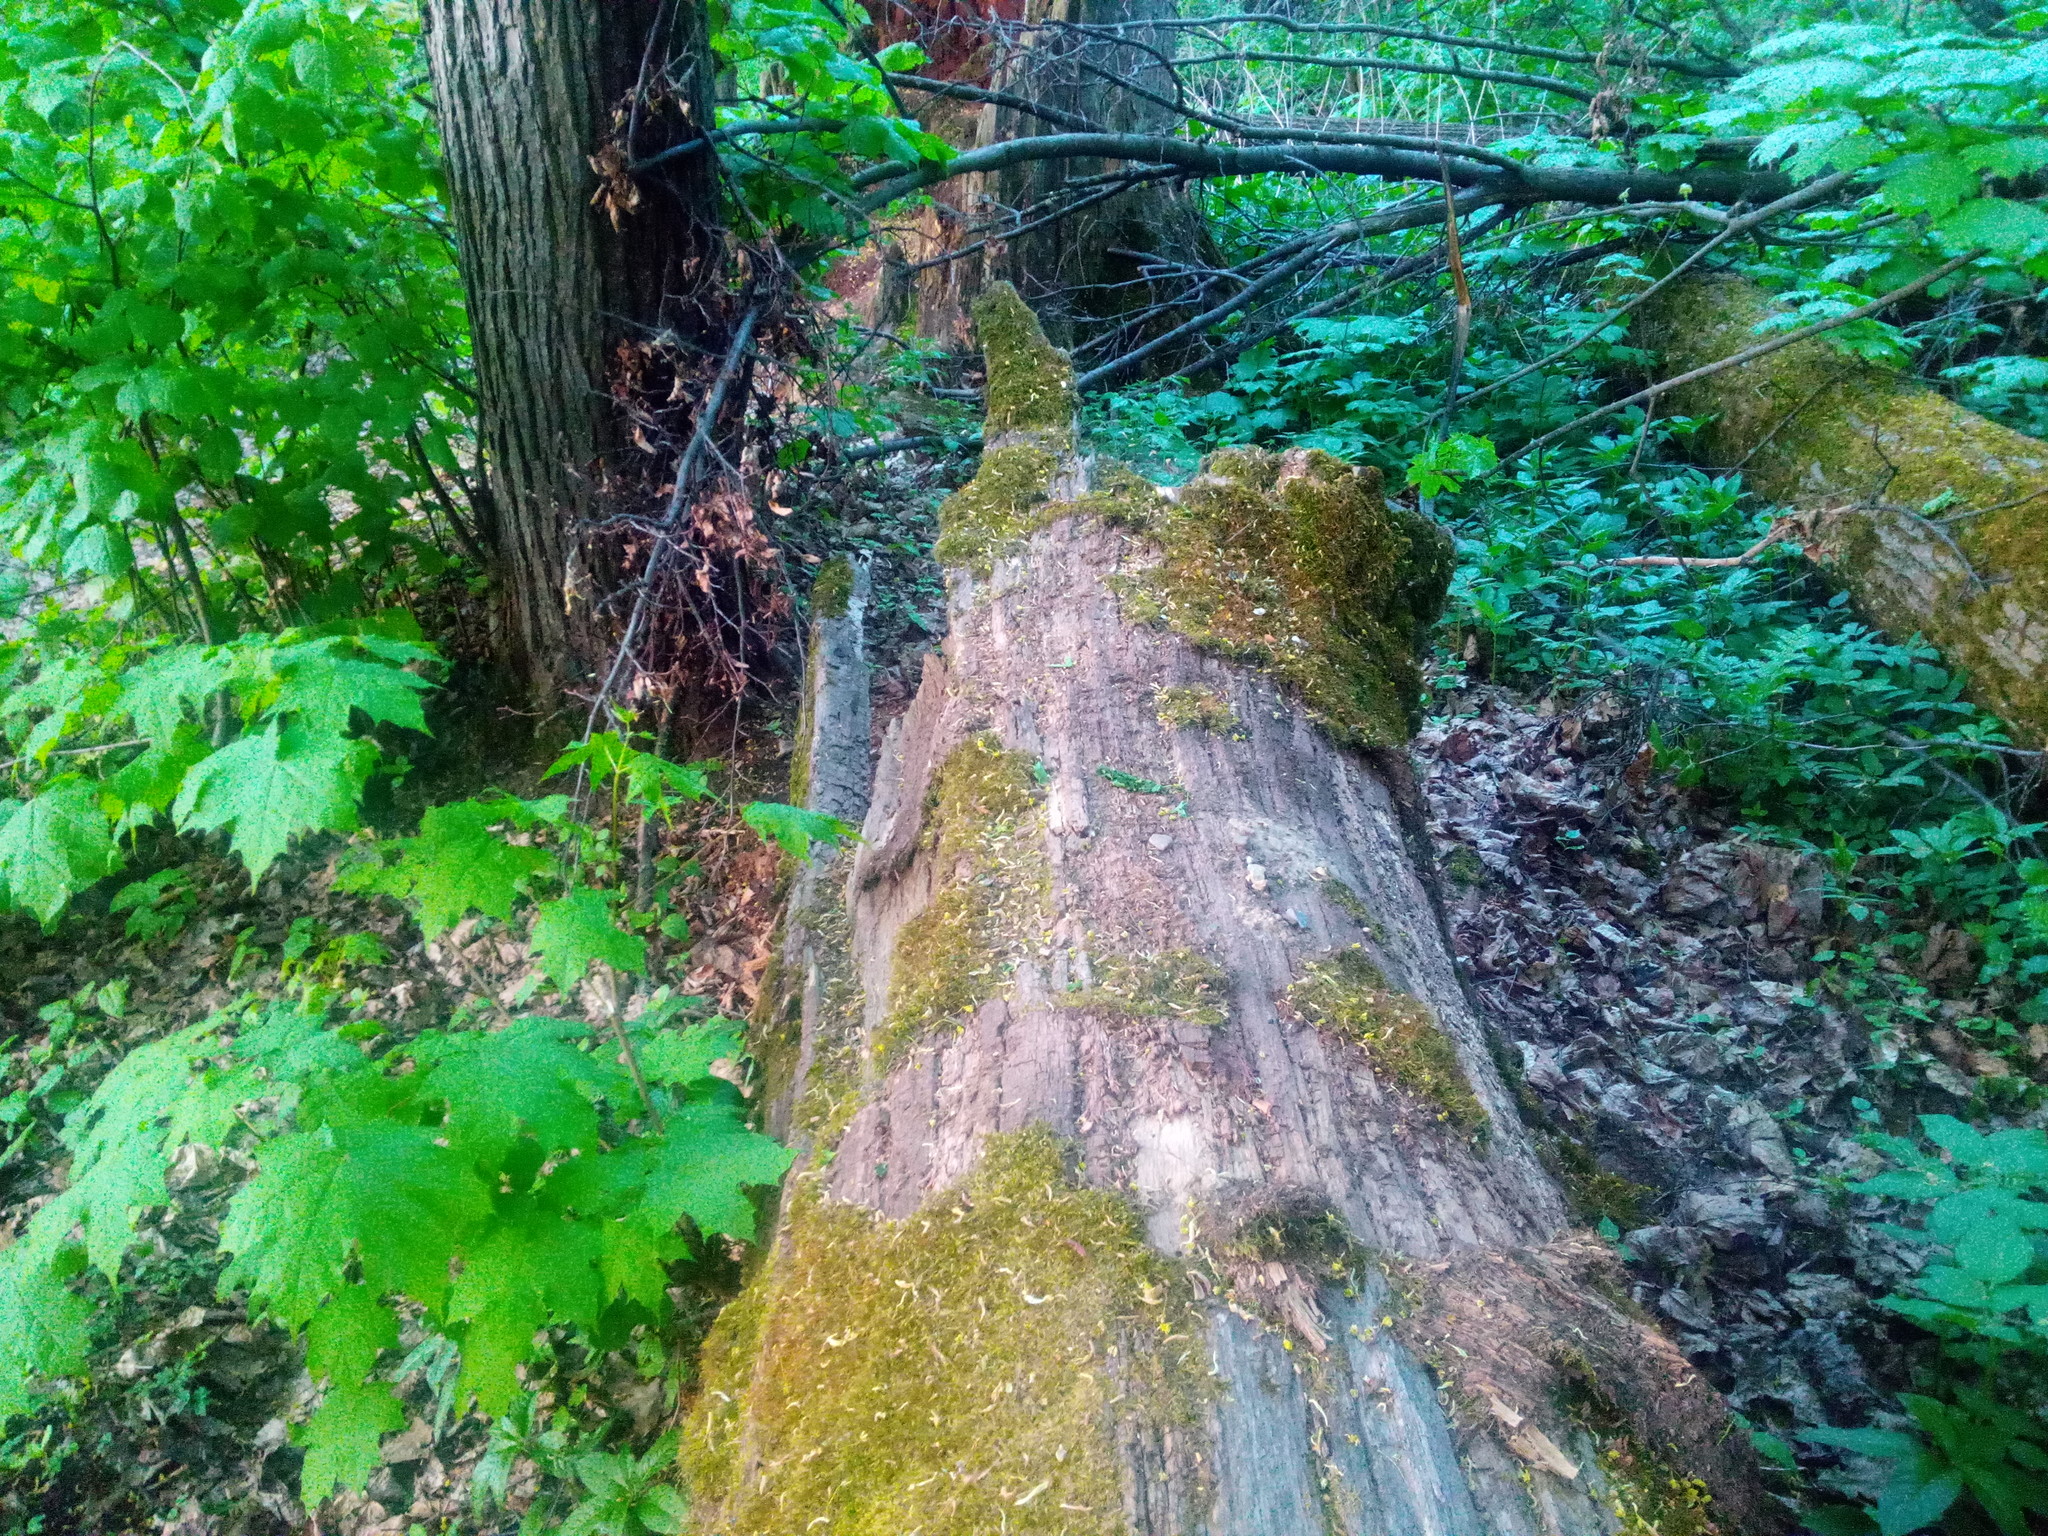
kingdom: Plantae
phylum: Tracheophyta
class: Magnoliopsida
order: Fagales
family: Fagaceae
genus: Quercus
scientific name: Quercus robur
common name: Pedunculate oak
